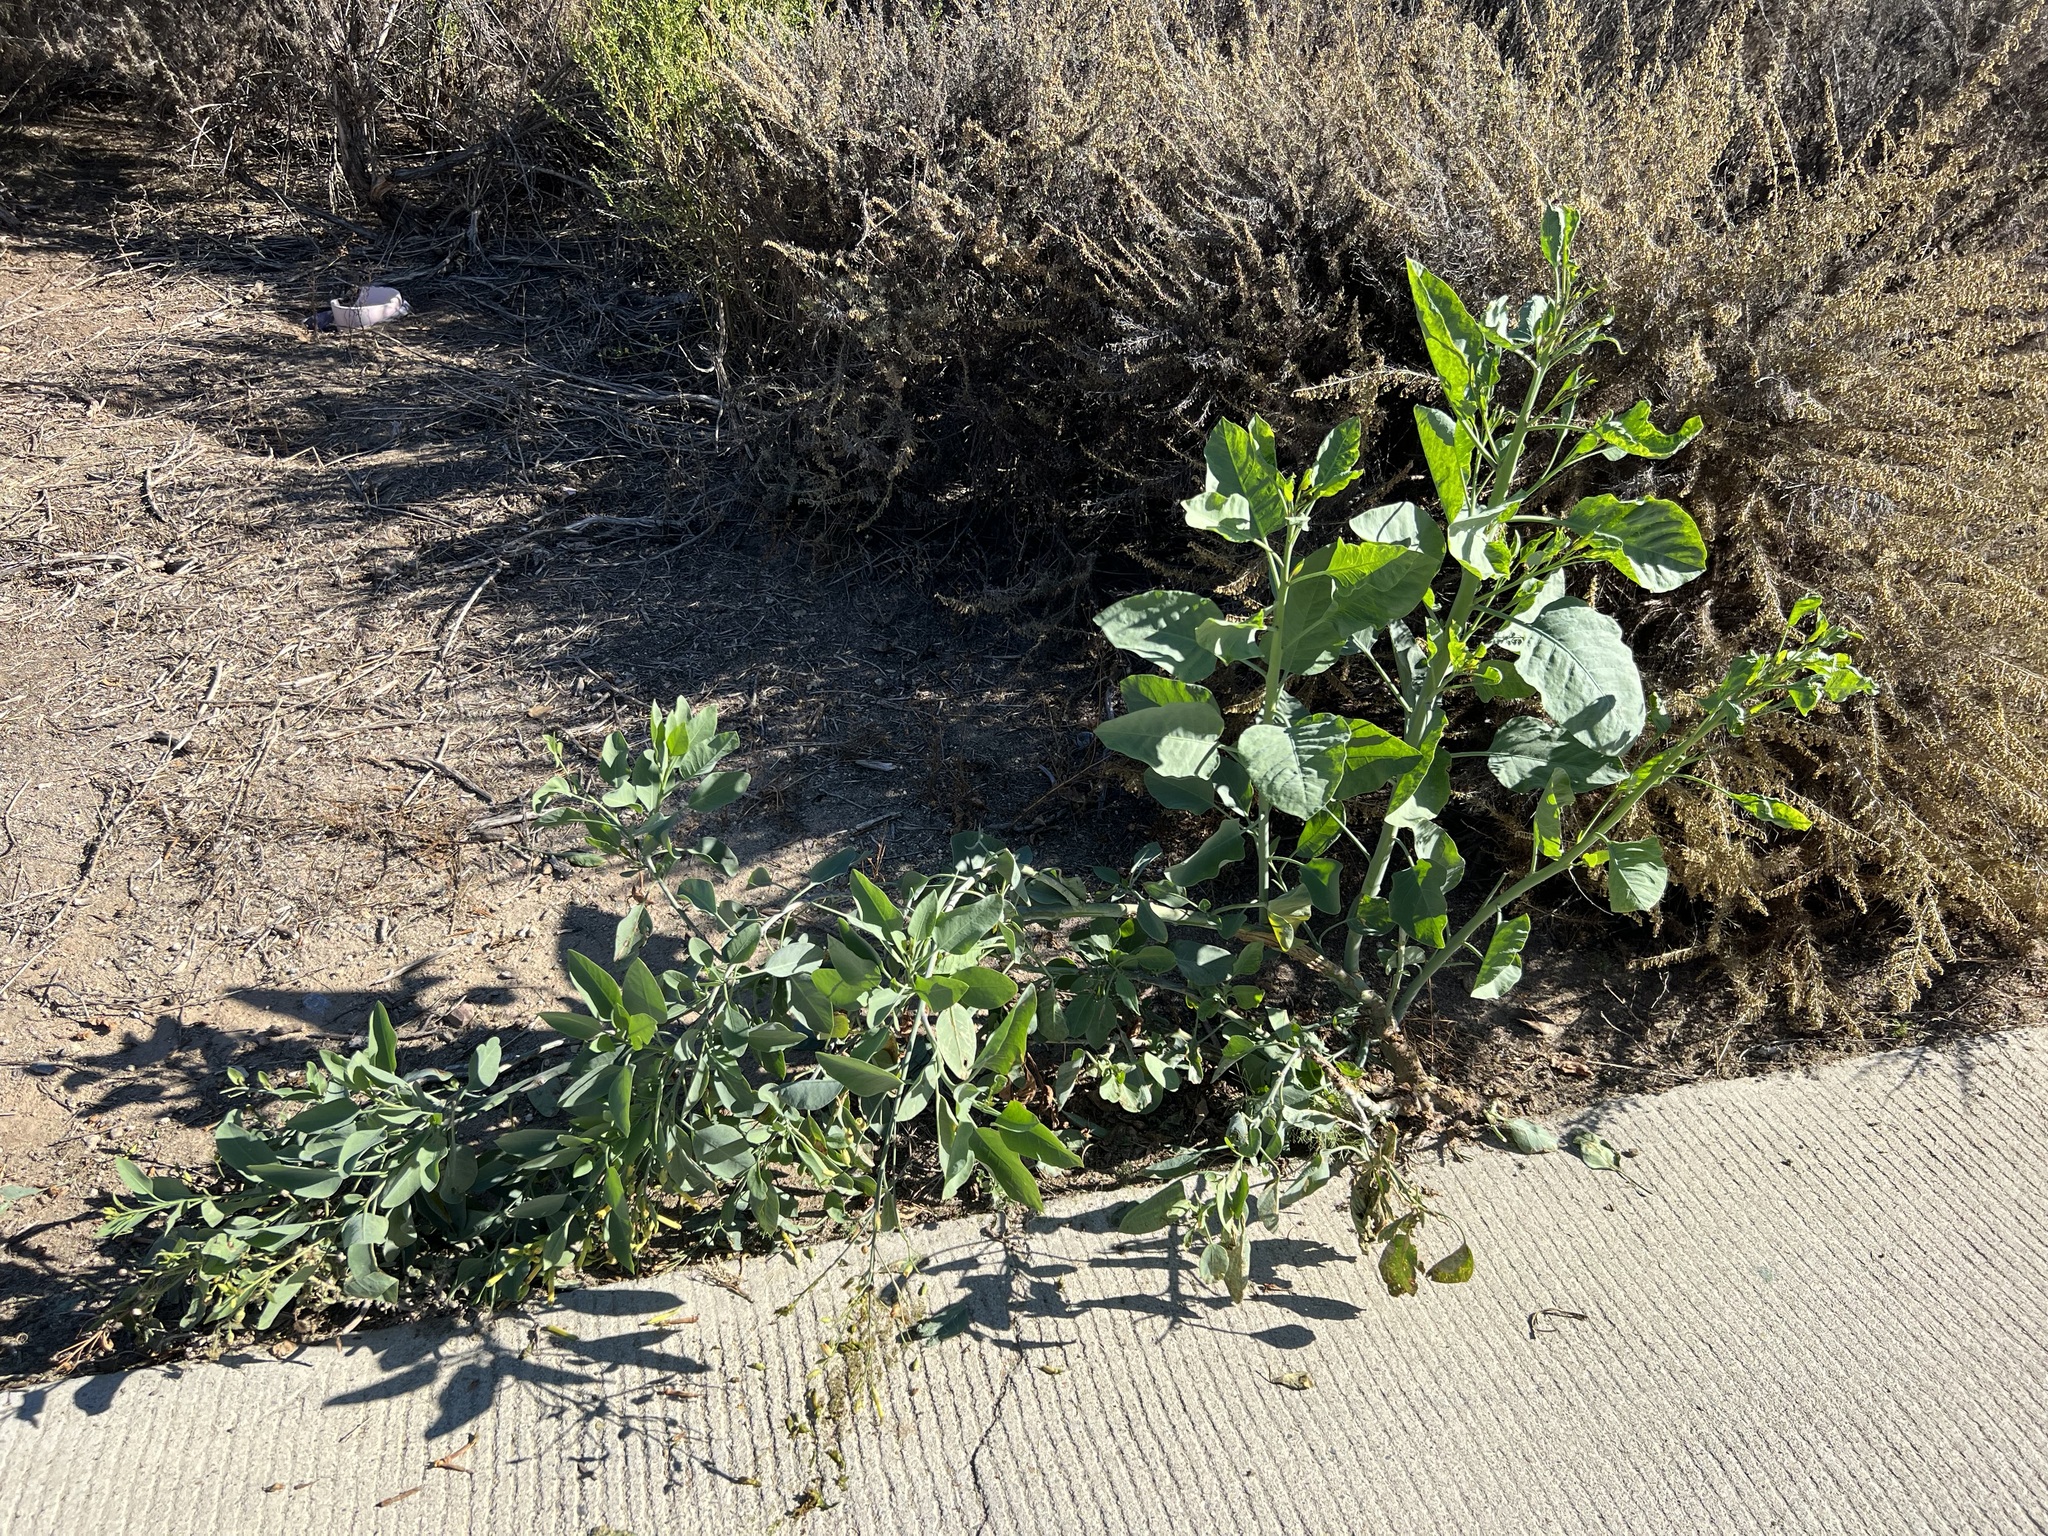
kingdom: Plantae
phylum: Tracheophyta
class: Magnoliopsida
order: Solanales
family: Solanaceae
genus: Nicotiana
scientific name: Nicotiana glauca
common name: Tree tobacco
